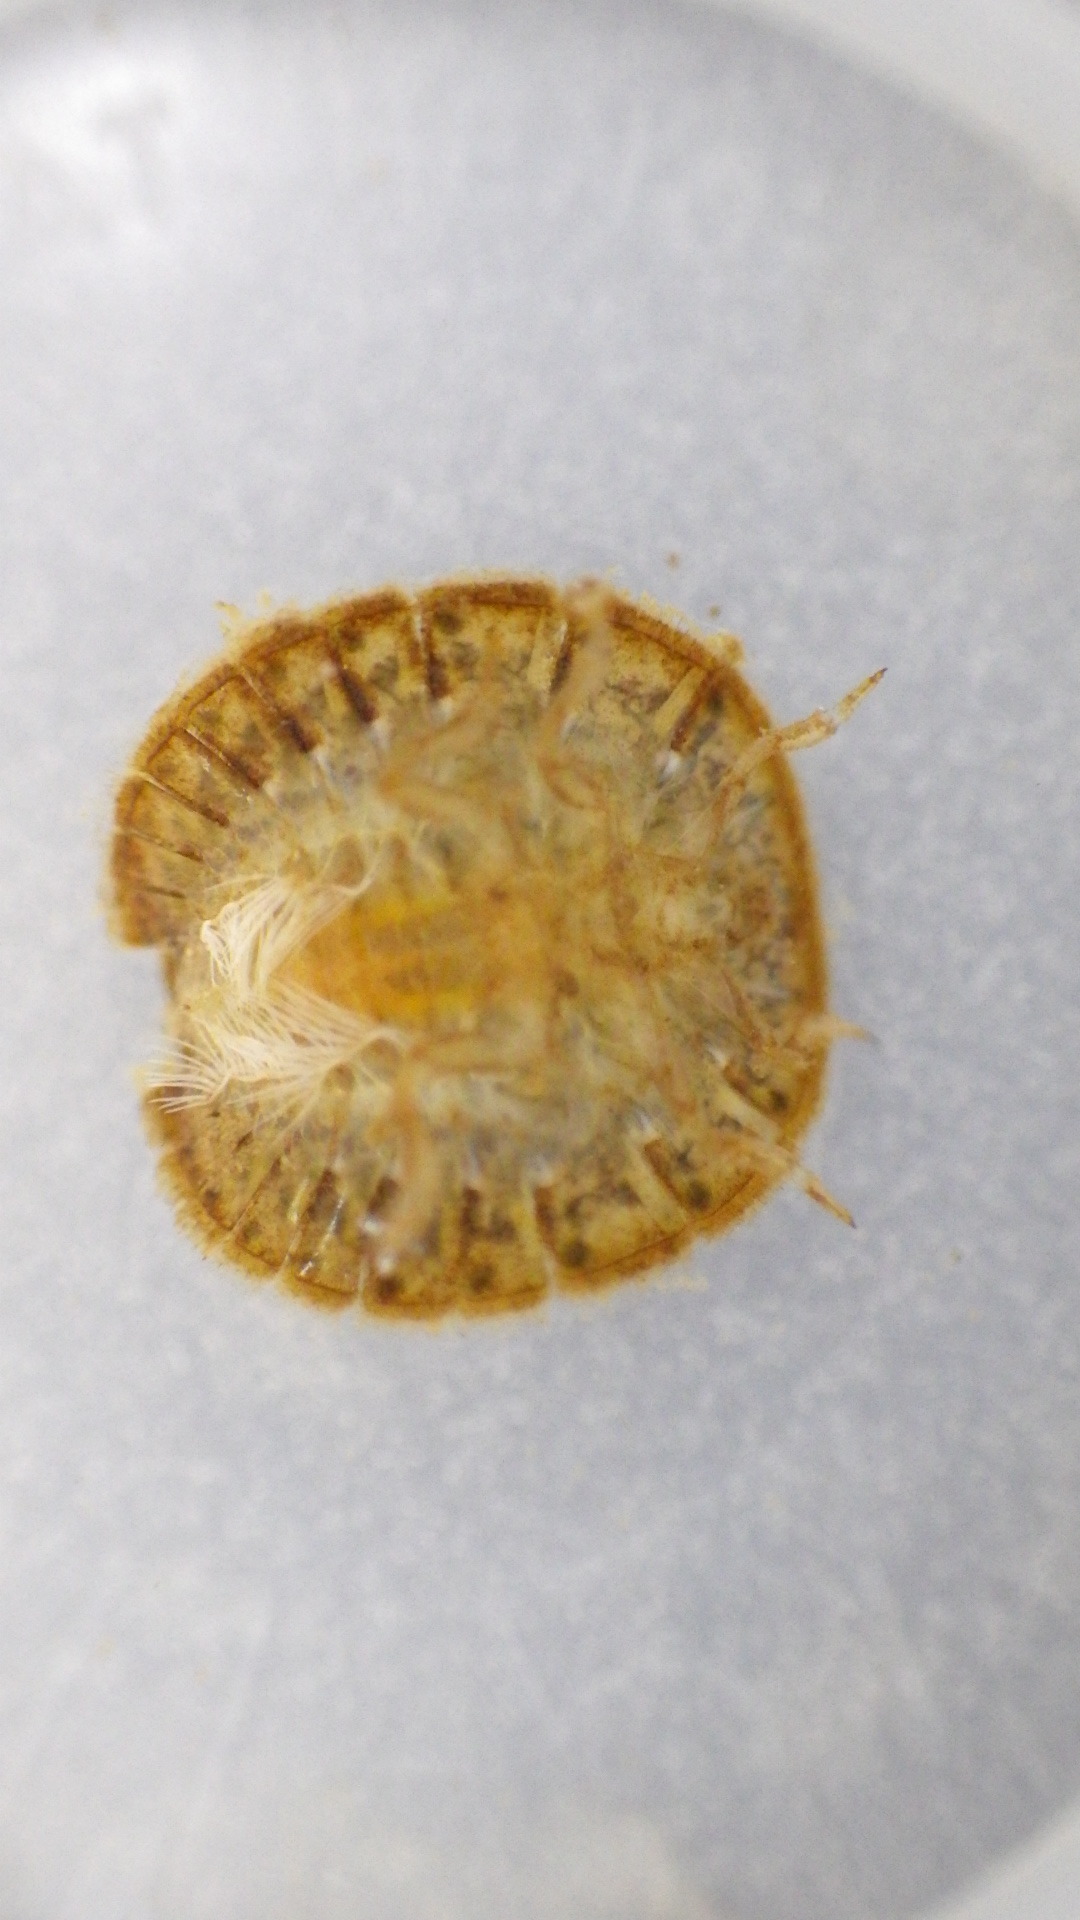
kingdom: Animalia
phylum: Arthropoda
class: Insecta
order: Coleoptera
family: Psephenidae
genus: Psephenus
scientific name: Psephenus herricki
